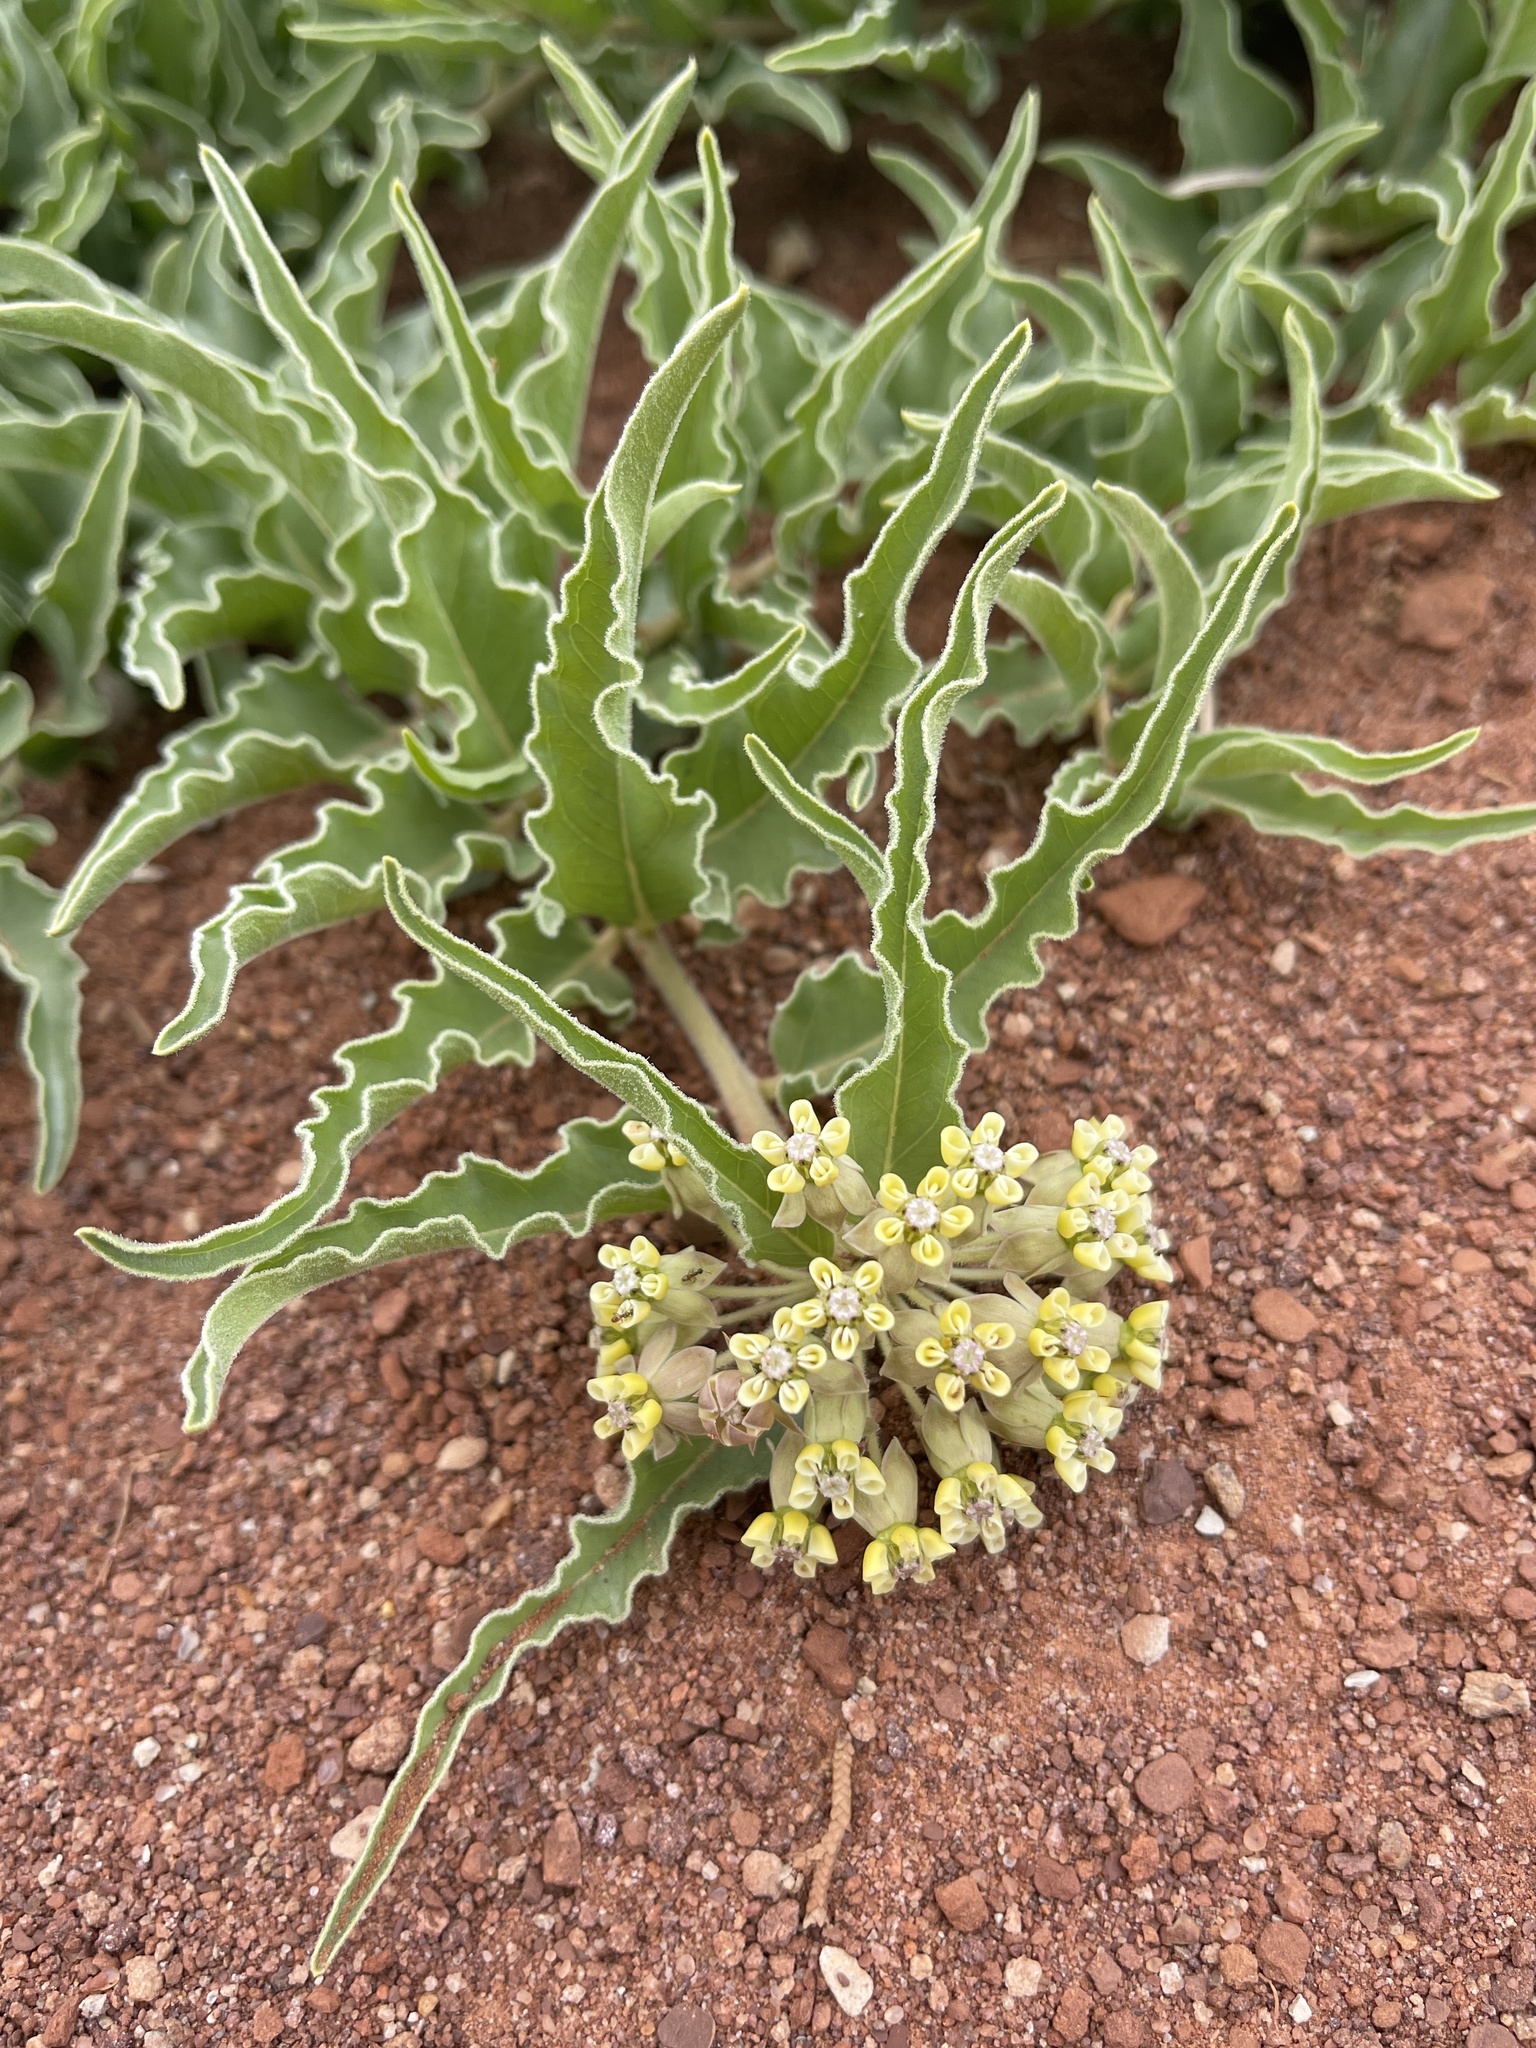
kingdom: Plantae
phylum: Tracheophyta
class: Magnoliopsida
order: Gentianales
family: Apocynaceae
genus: Asclepias
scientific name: Asclepias involucrata
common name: Dwarf milkweed
